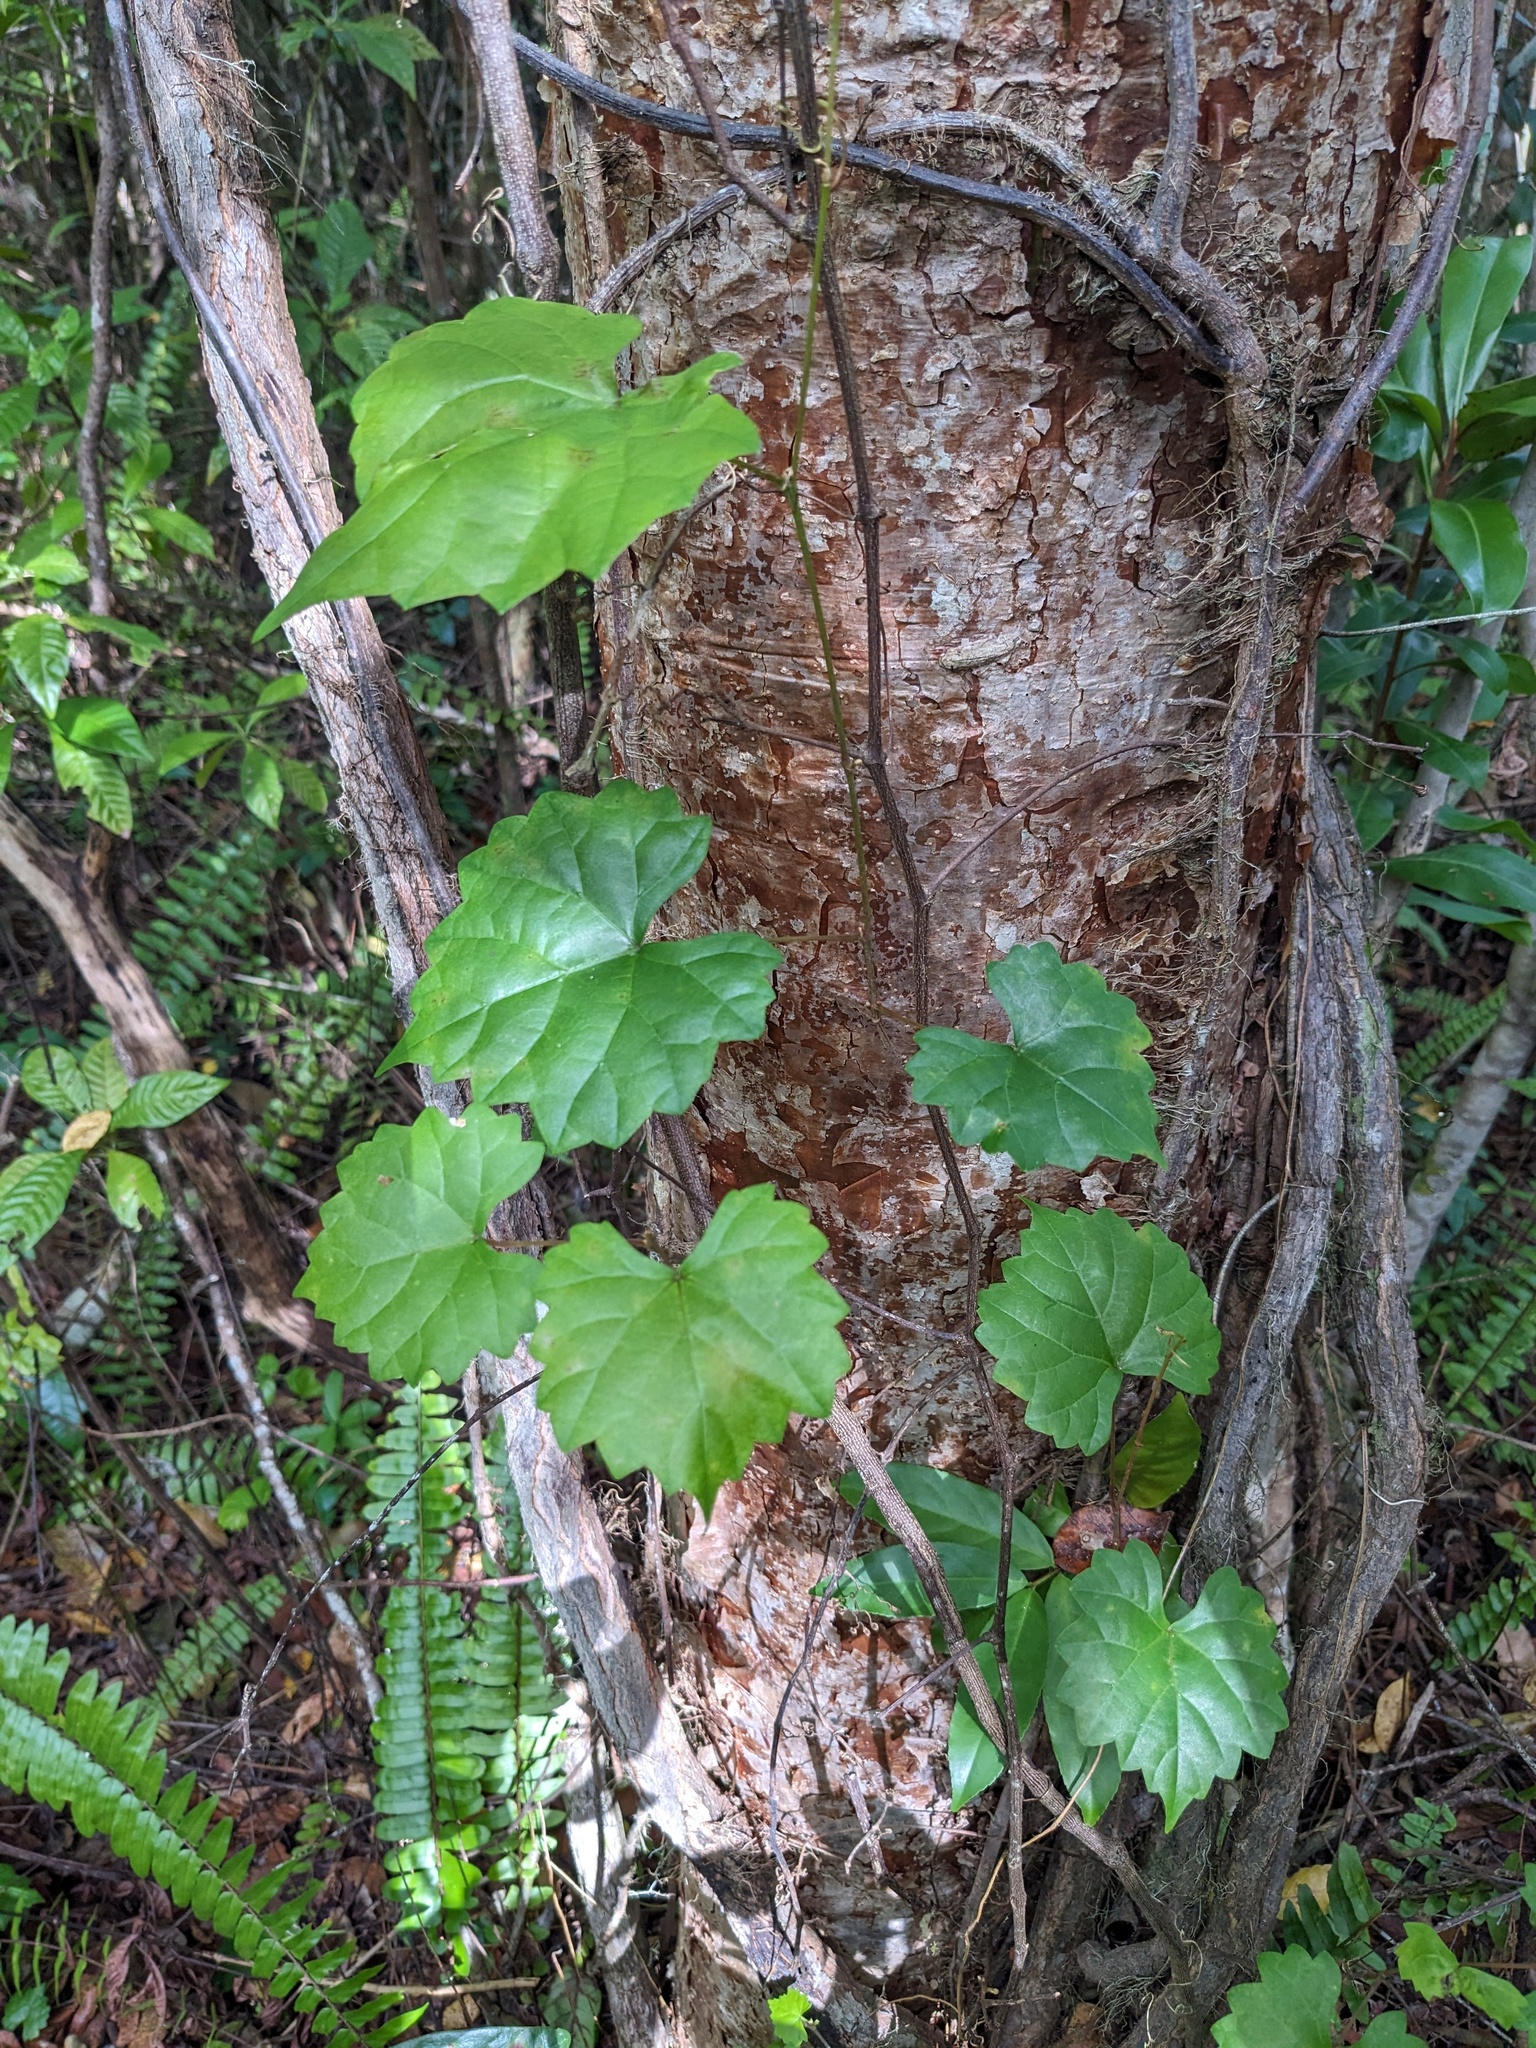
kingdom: Plantae
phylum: Tracheophyta
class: Magnoliopsida
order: Vitales
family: Vitaceae
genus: Vitis
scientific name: Vitis rotundifolia
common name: Muscadine grape
